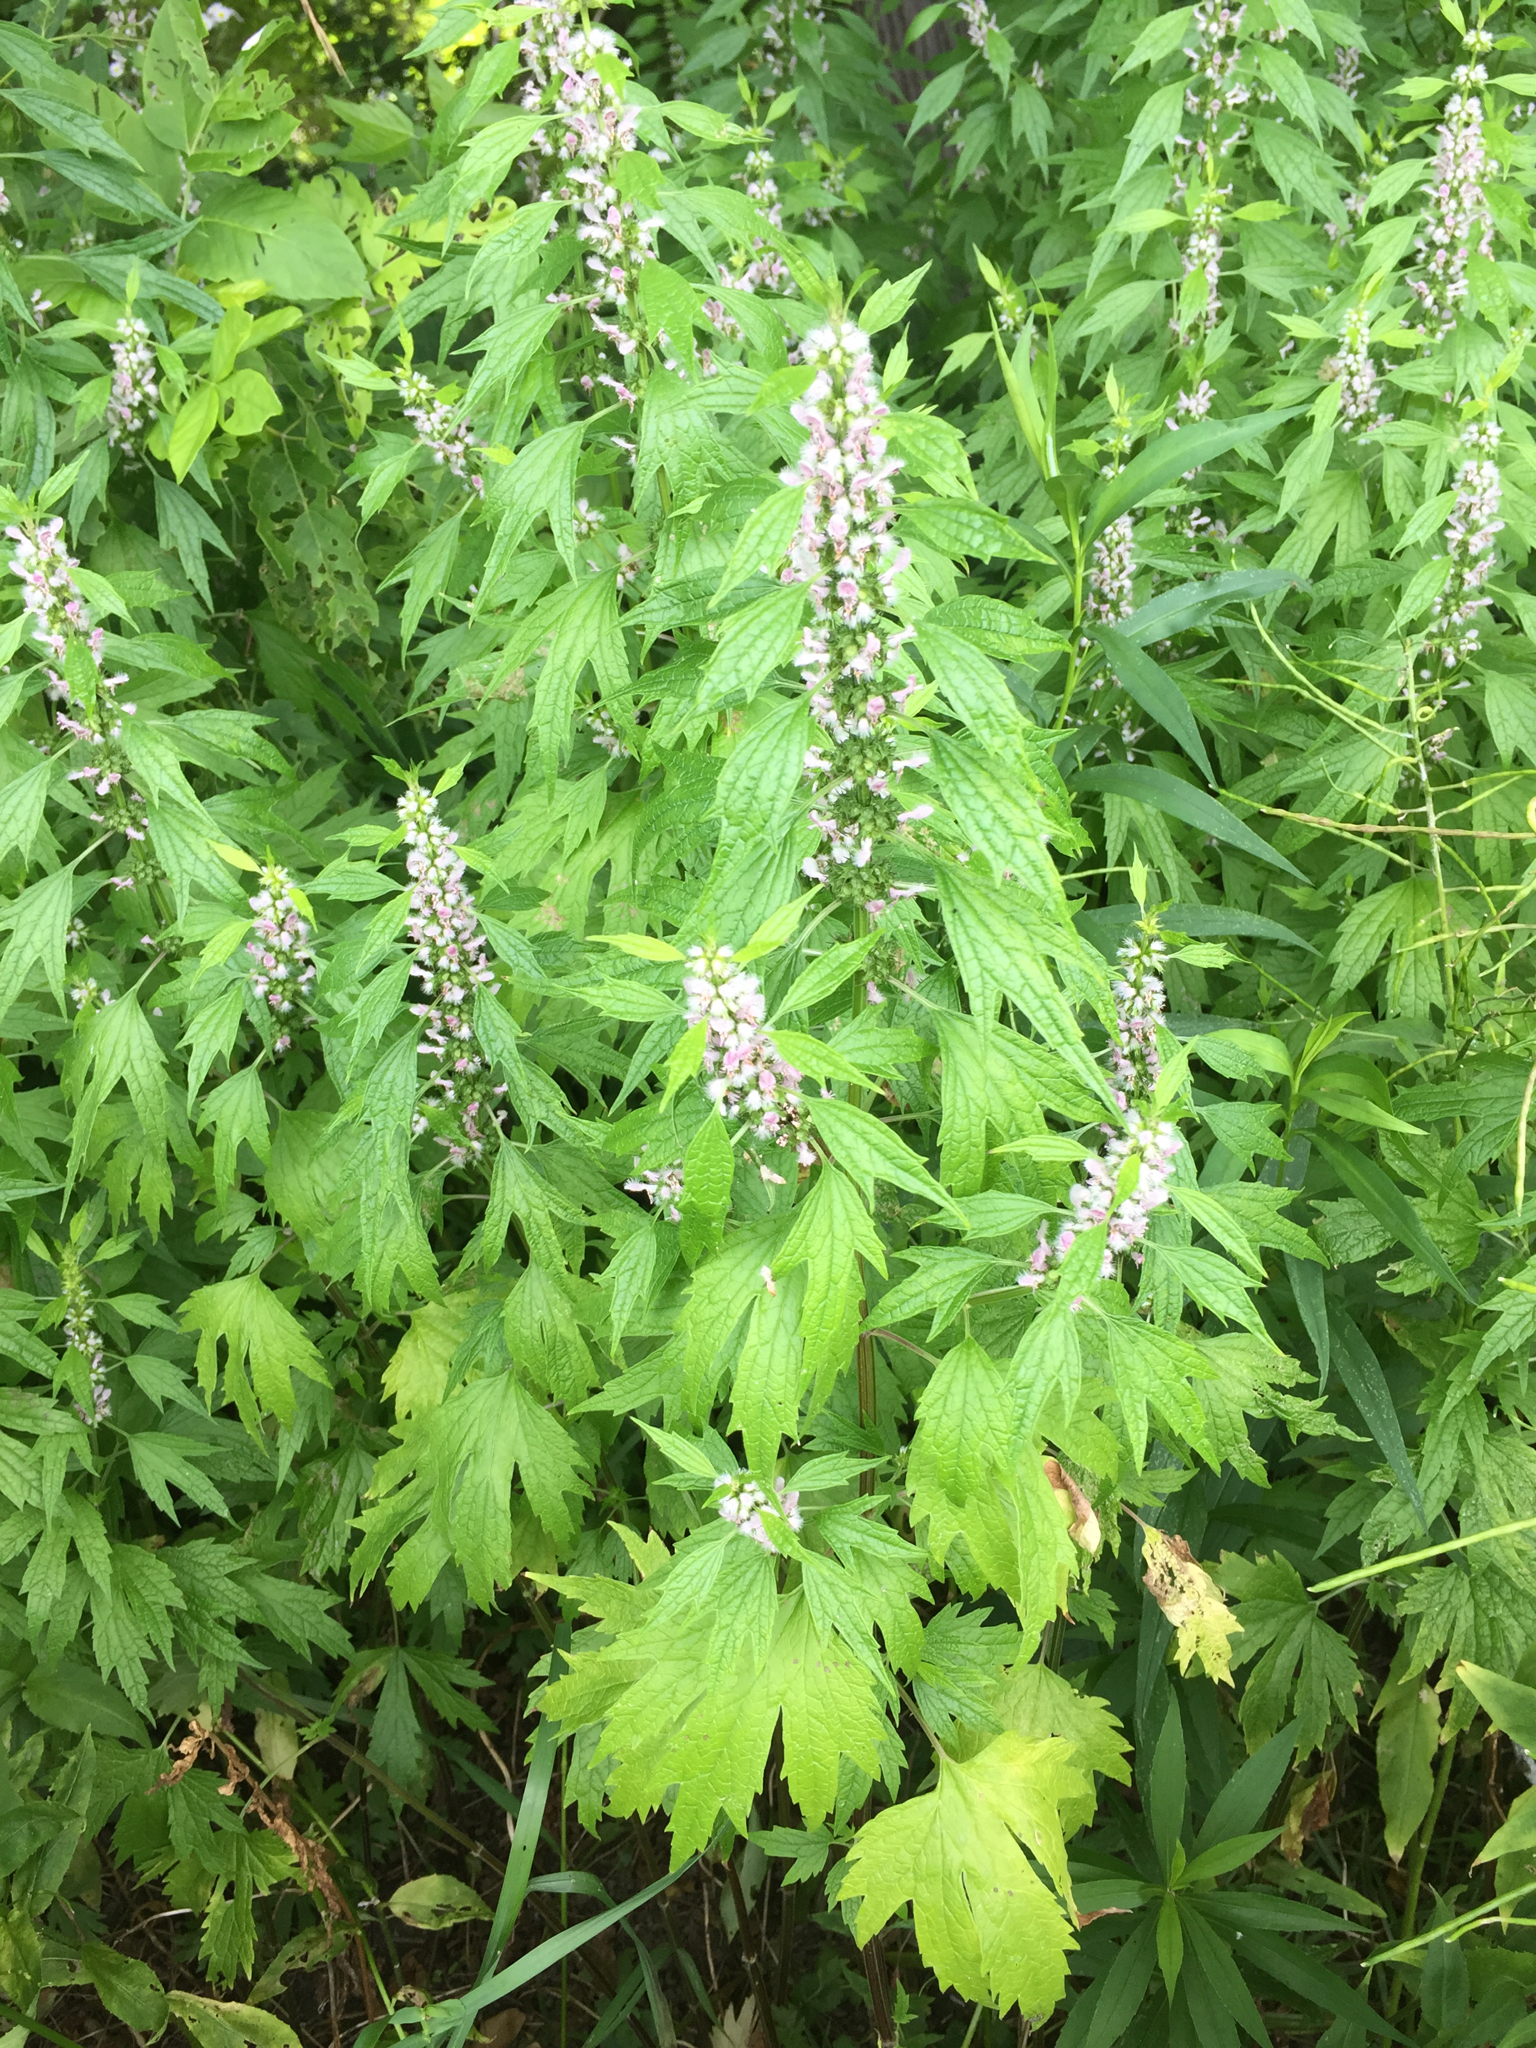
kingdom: Plantae
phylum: Tracheophyta
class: Magnoliopsida
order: Lamiales
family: Lamiaceae
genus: Leonurus
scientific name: Leonurus cardiaca
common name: Motherwort
